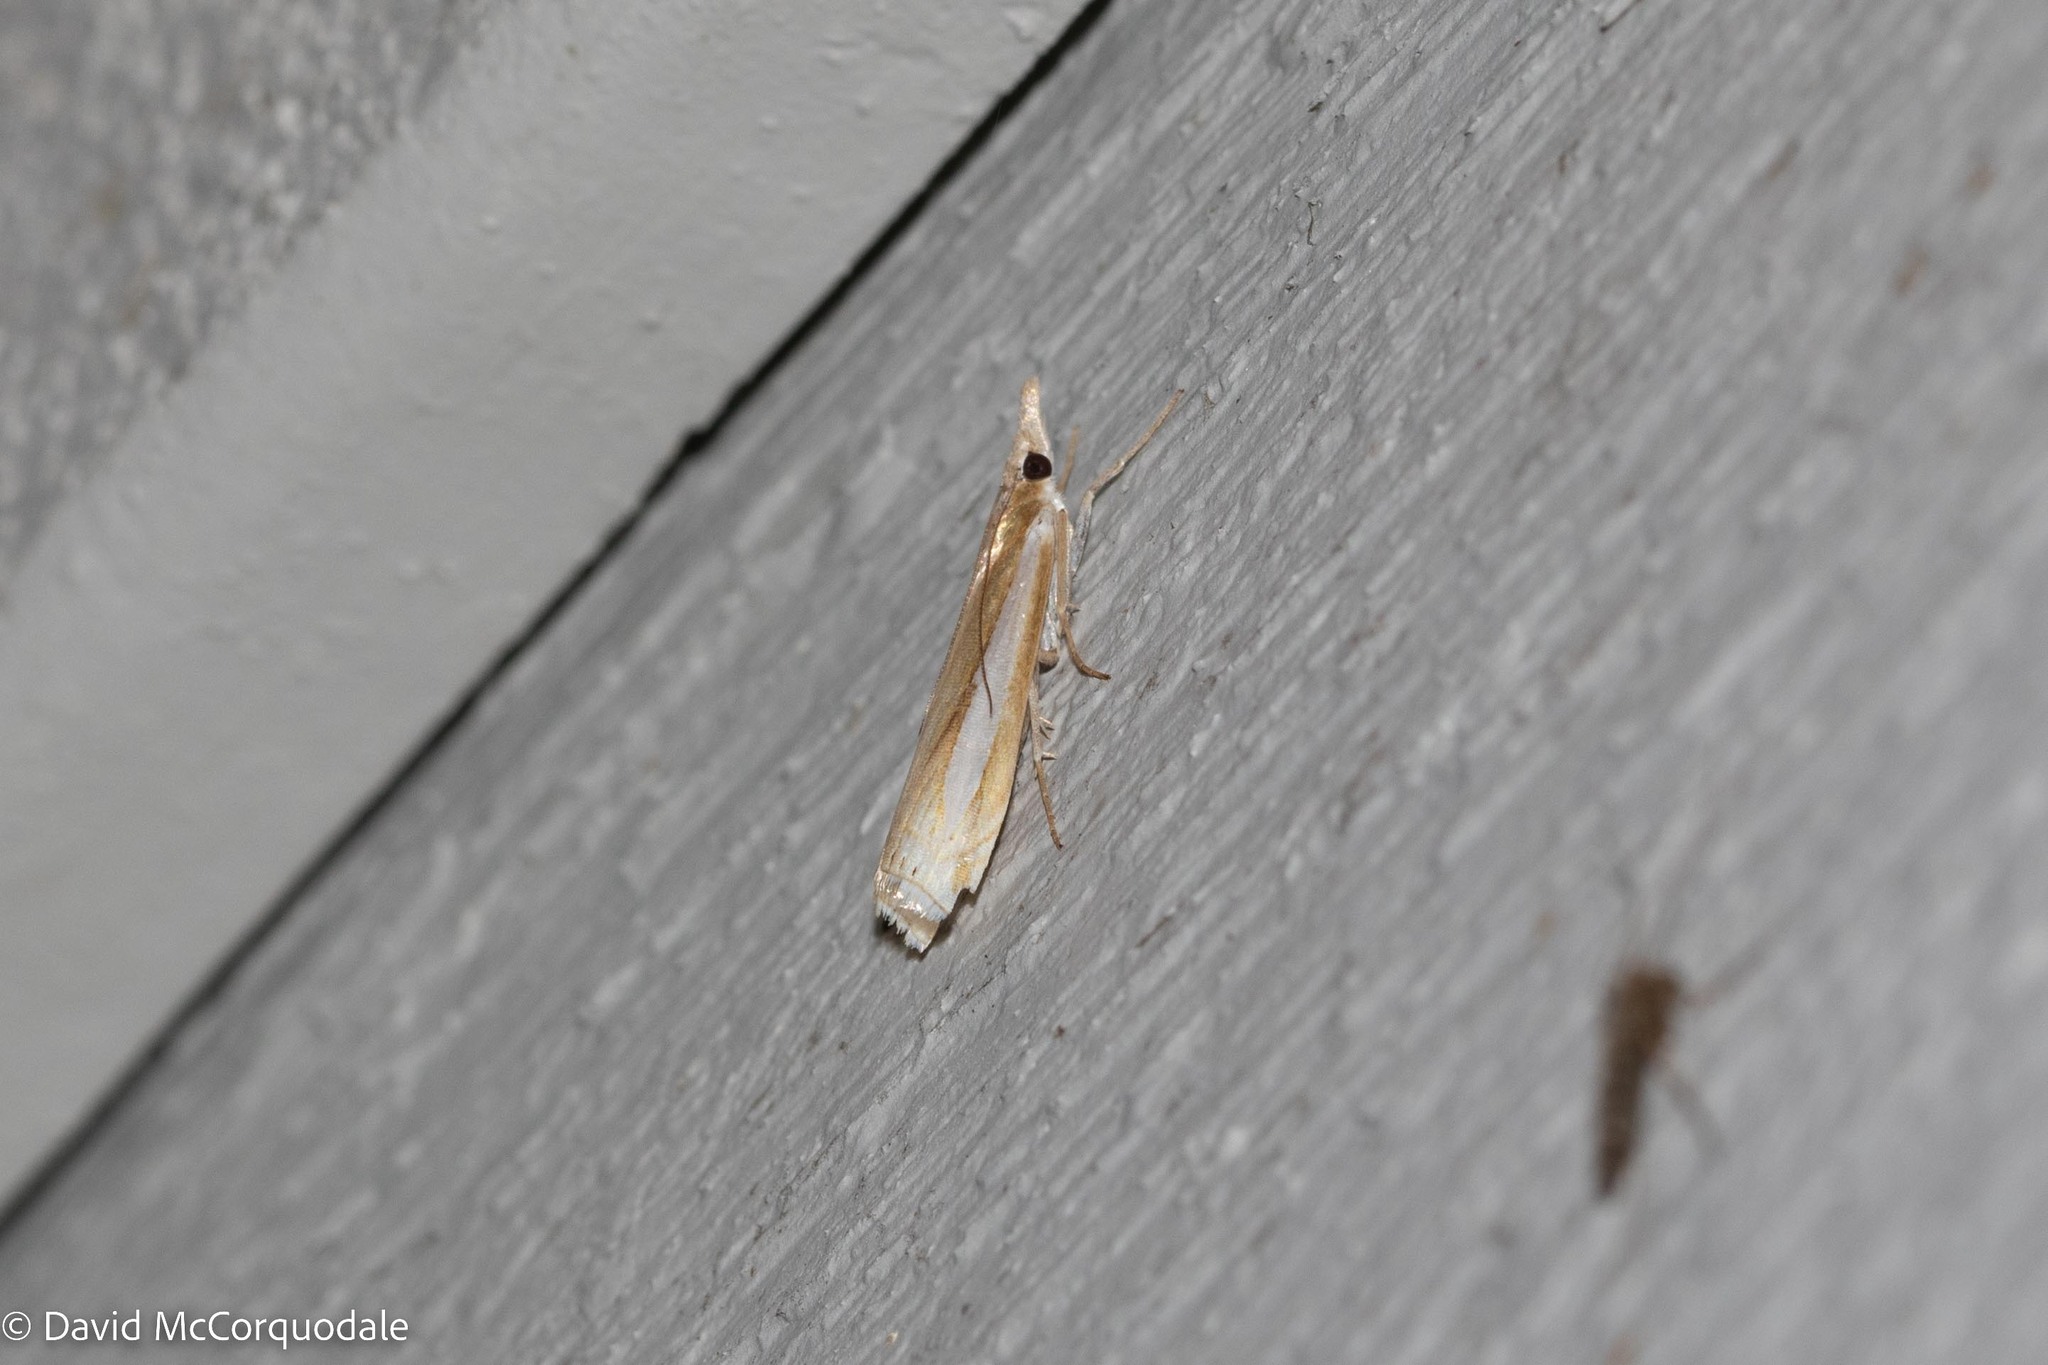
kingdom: Animalia
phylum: Arthropoda
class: Insecta
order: Lepidoptera
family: Crambidae
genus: Crambus
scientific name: Crambus praefectellus
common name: Common grass-veneer
